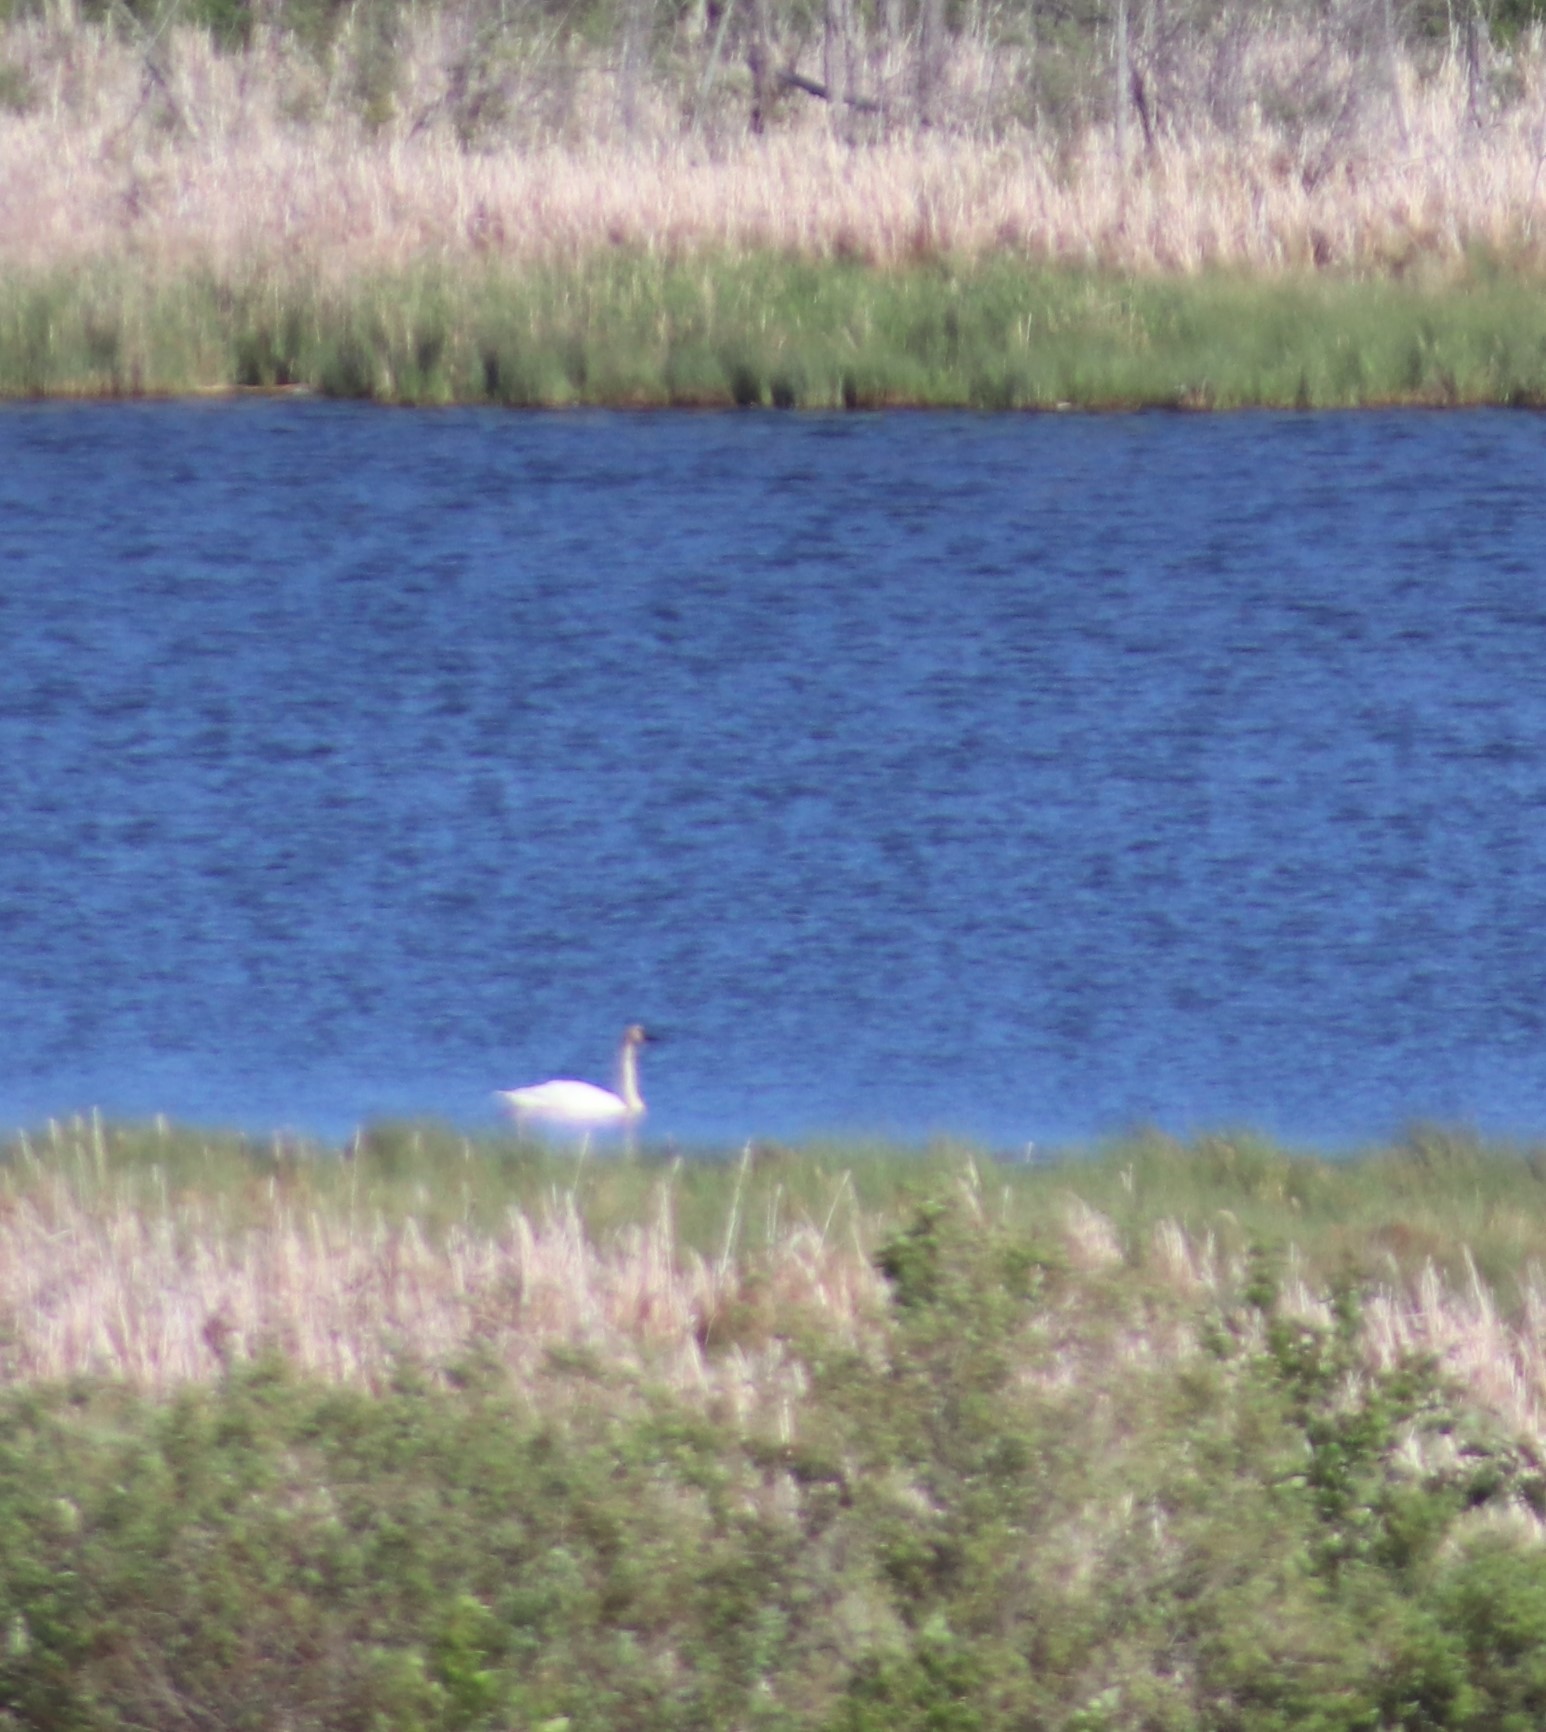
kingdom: Animalia
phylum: Chordata
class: Aves
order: Anseriformes
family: Anatidae
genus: Cygnus
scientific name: Cygnus buccinator
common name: Trumpeter swan
